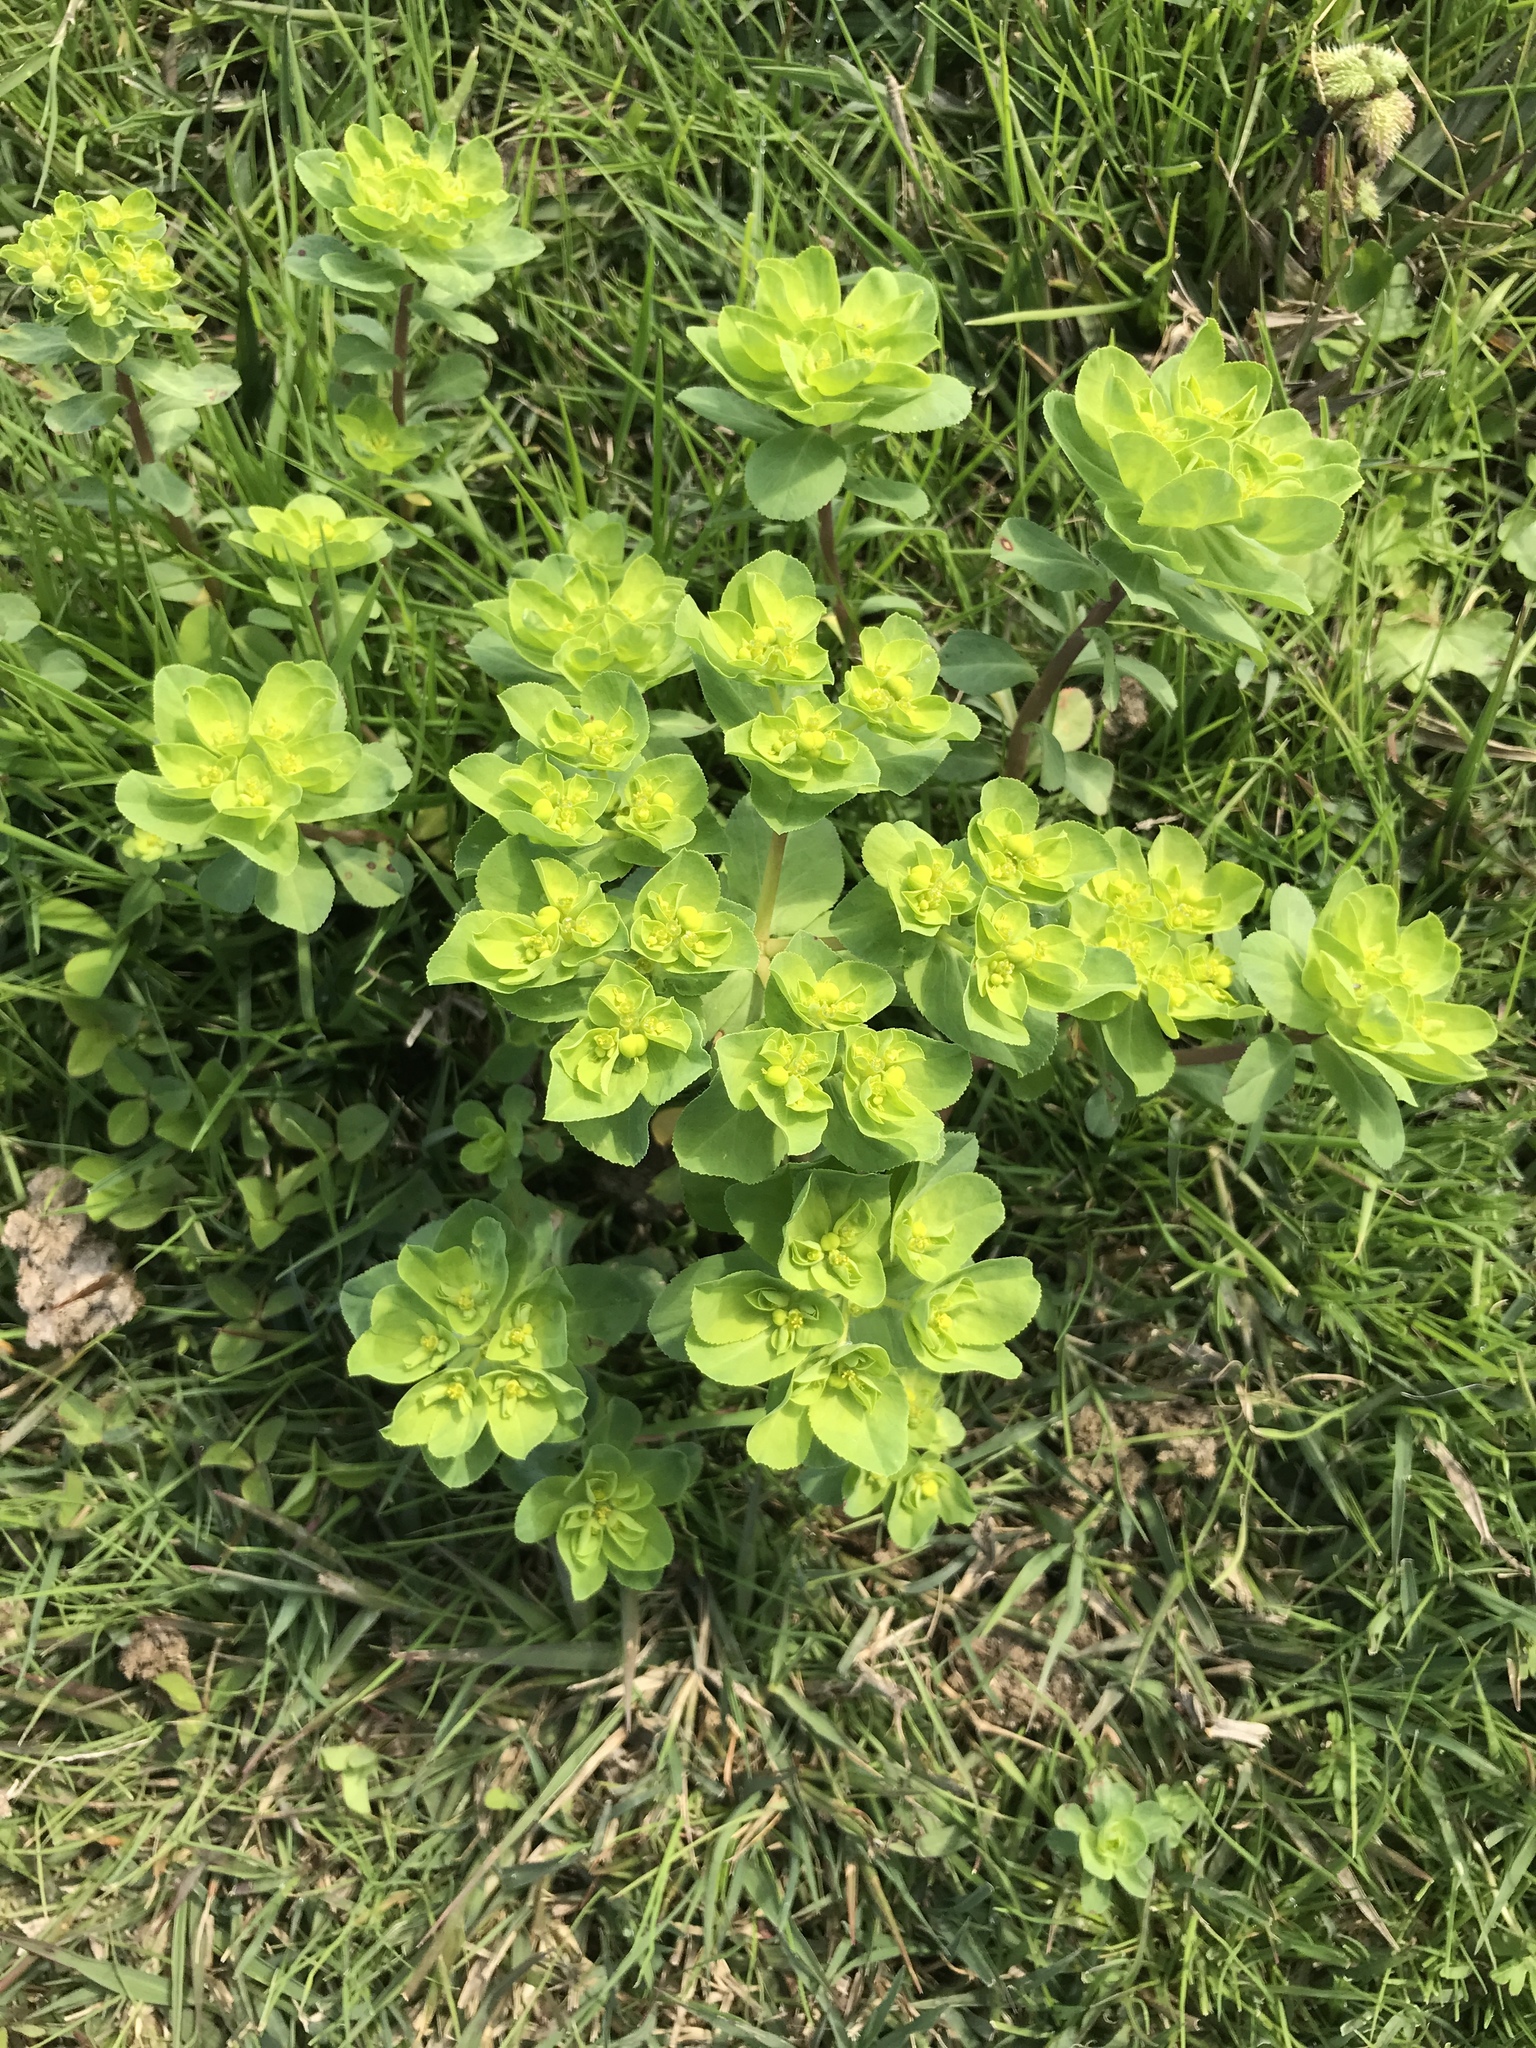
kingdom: Plantae
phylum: Tracheophyta
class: Magnoliopsida
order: Malpighiales
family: Euphorbiaceae
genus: Euphorbia
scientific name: Euphorbia helioscopia
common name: Sun spurge
